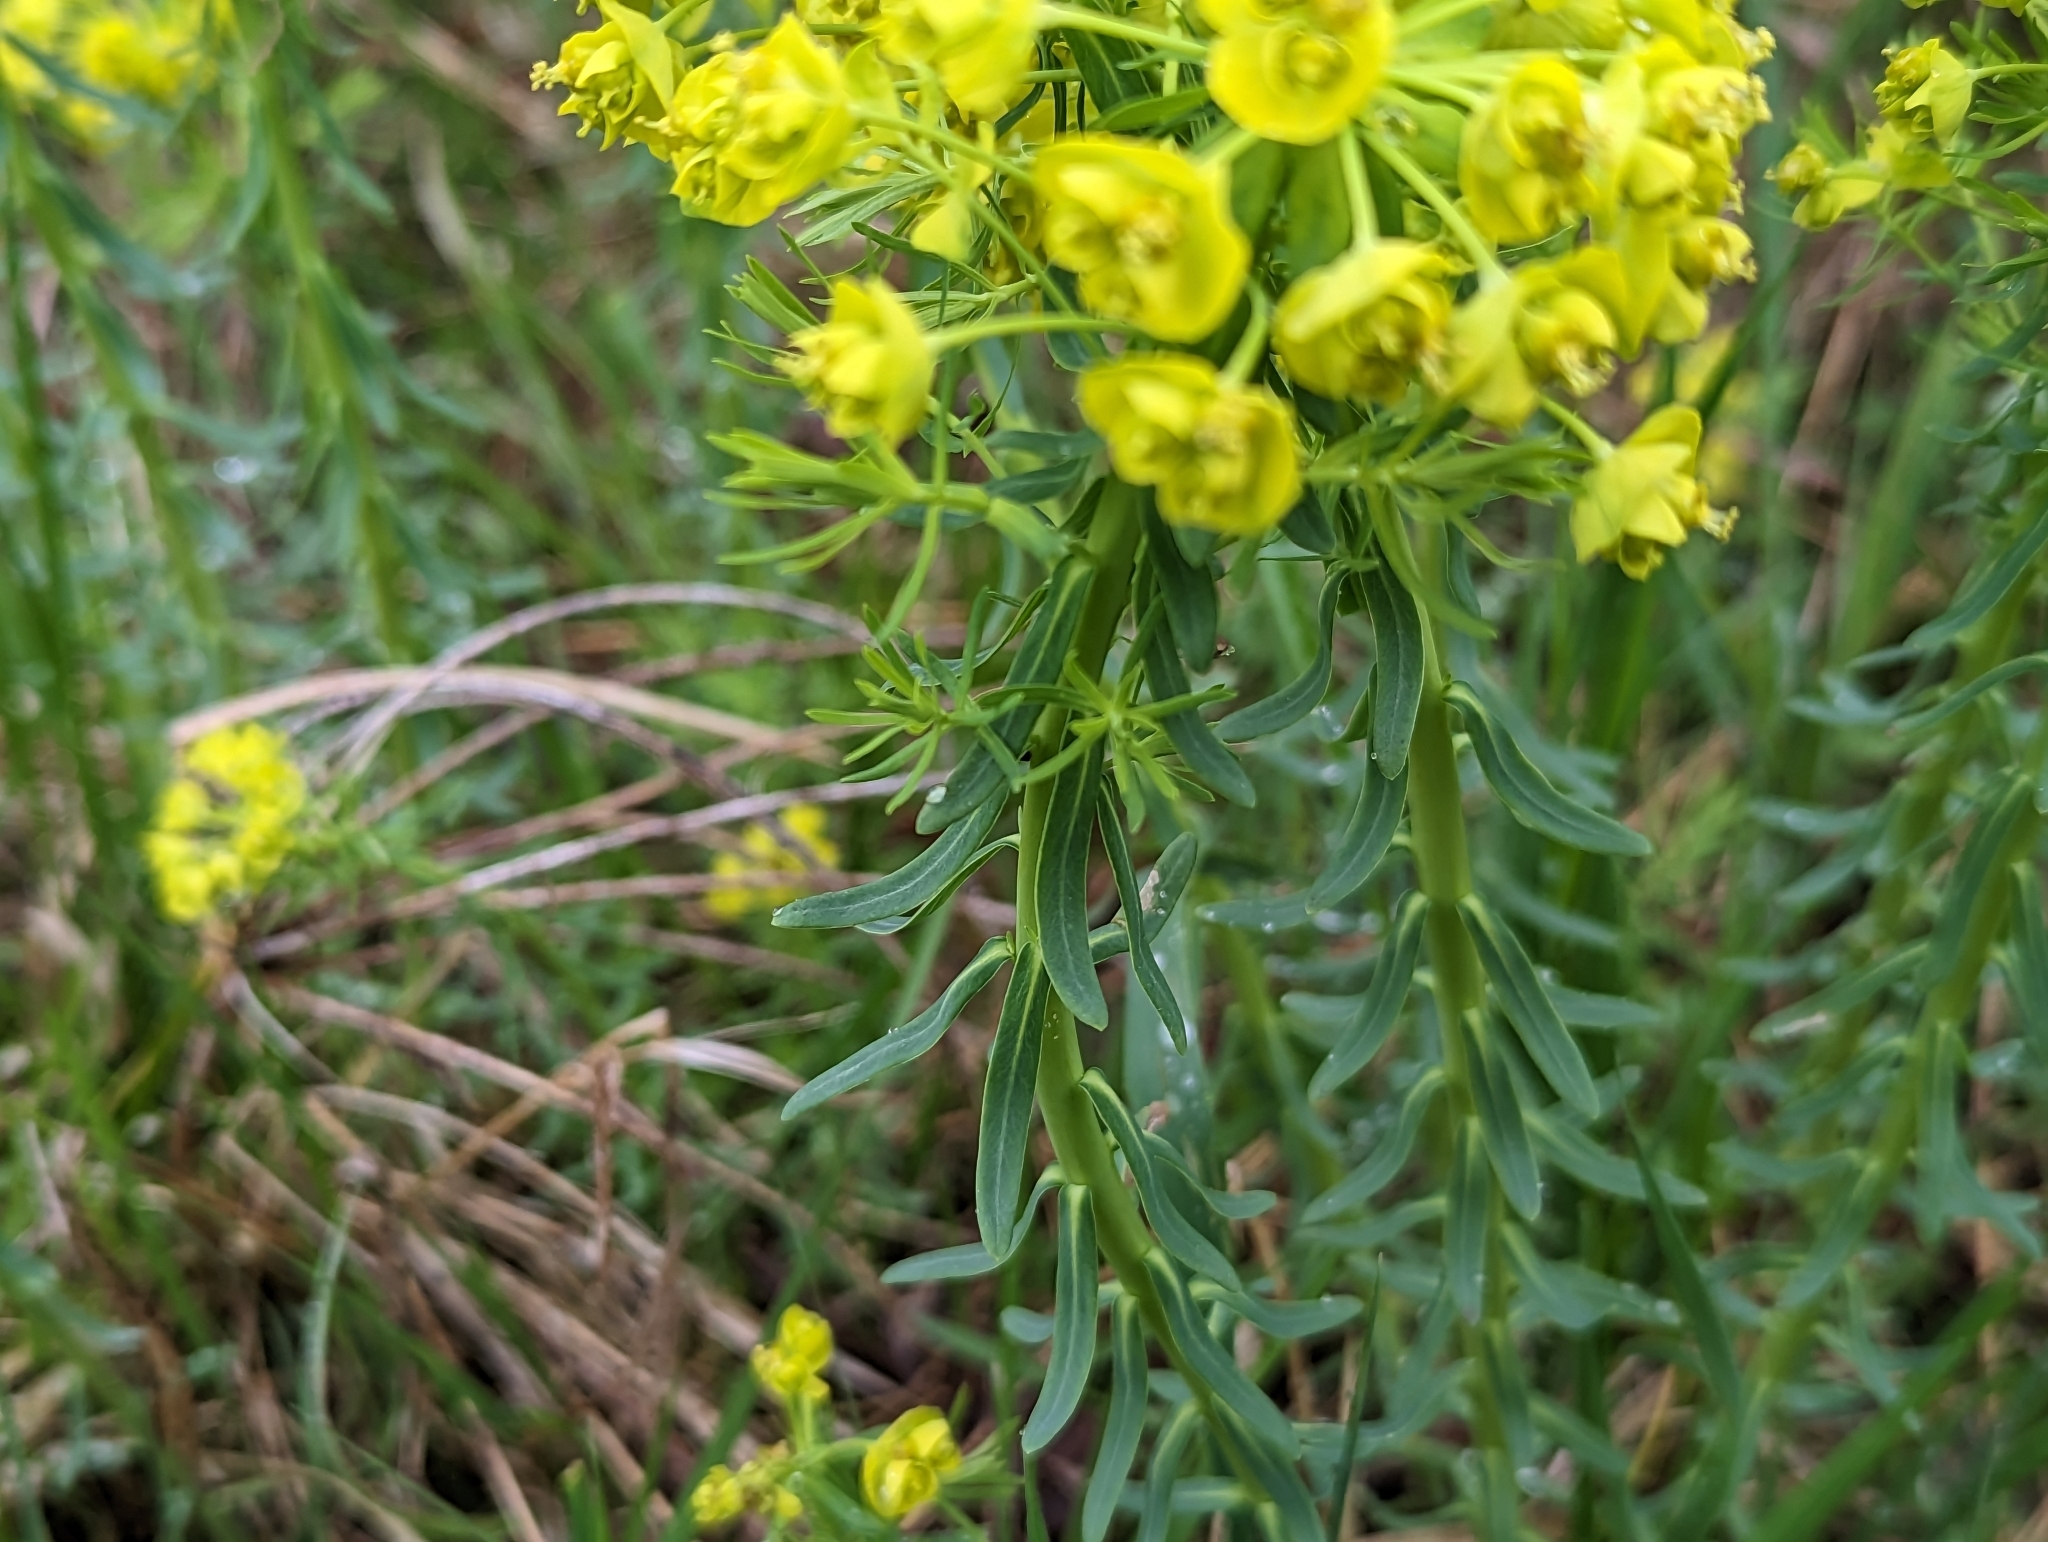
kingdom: Plantae
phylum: Tracheophyta
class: Magnoliopsida
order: Malpighiales
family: Euphorbiaceae
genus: Euphorbia
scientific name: Euphorbia cyparissias
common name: Cypress spurge
